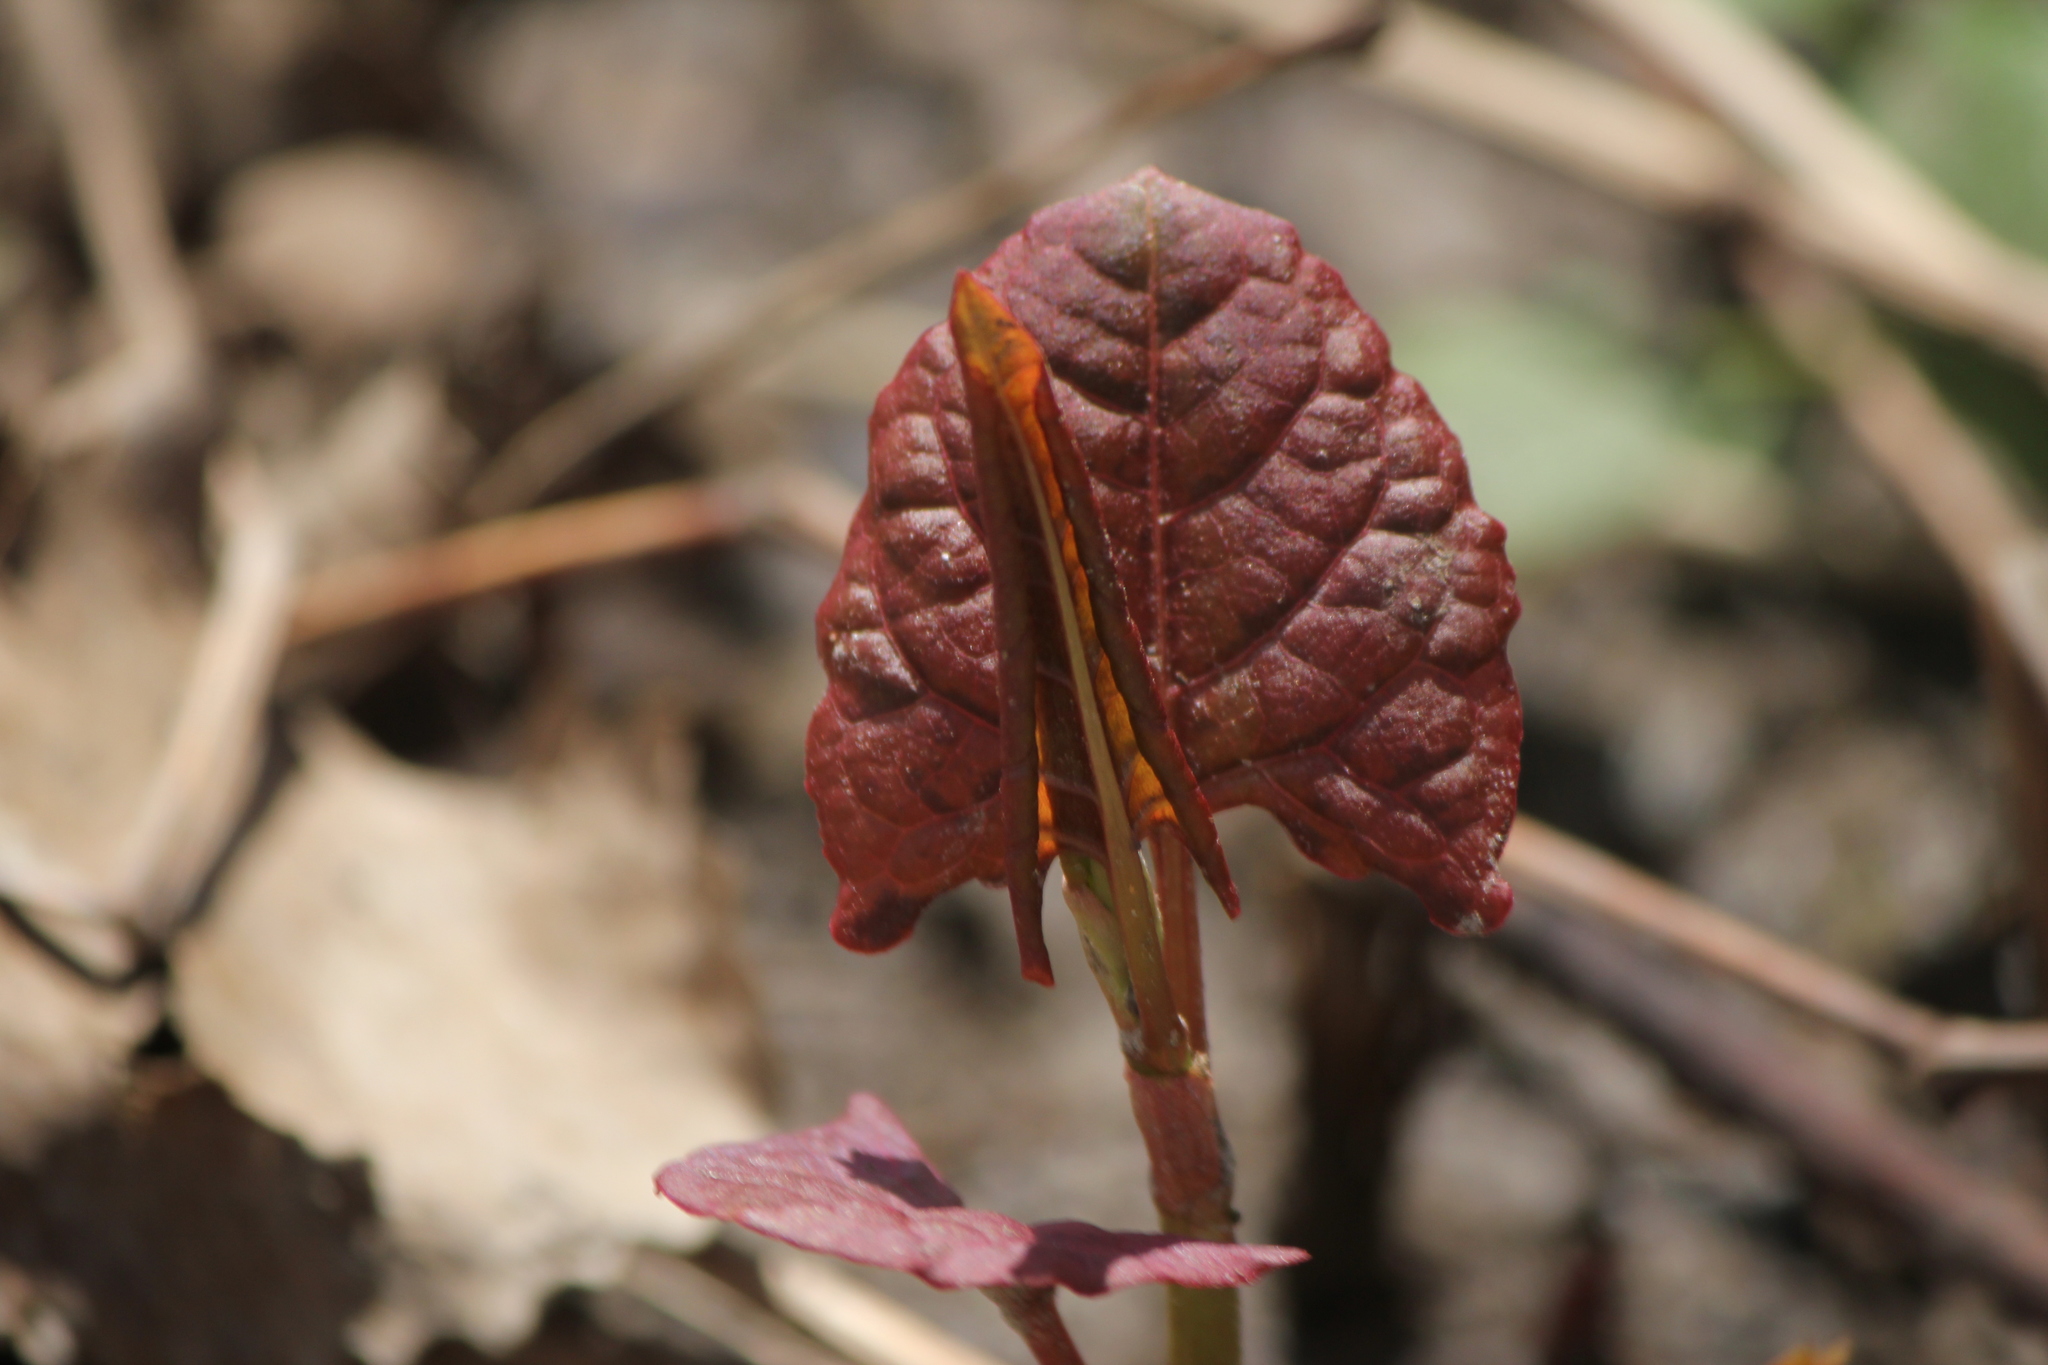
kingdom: Plantae
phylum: Tracheophyta
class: Magnoliopsida
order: Caryophyllales
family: Polygonaceae
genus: Reynoutria
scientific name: Reynoutria japonica
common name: Japanese knotweed
